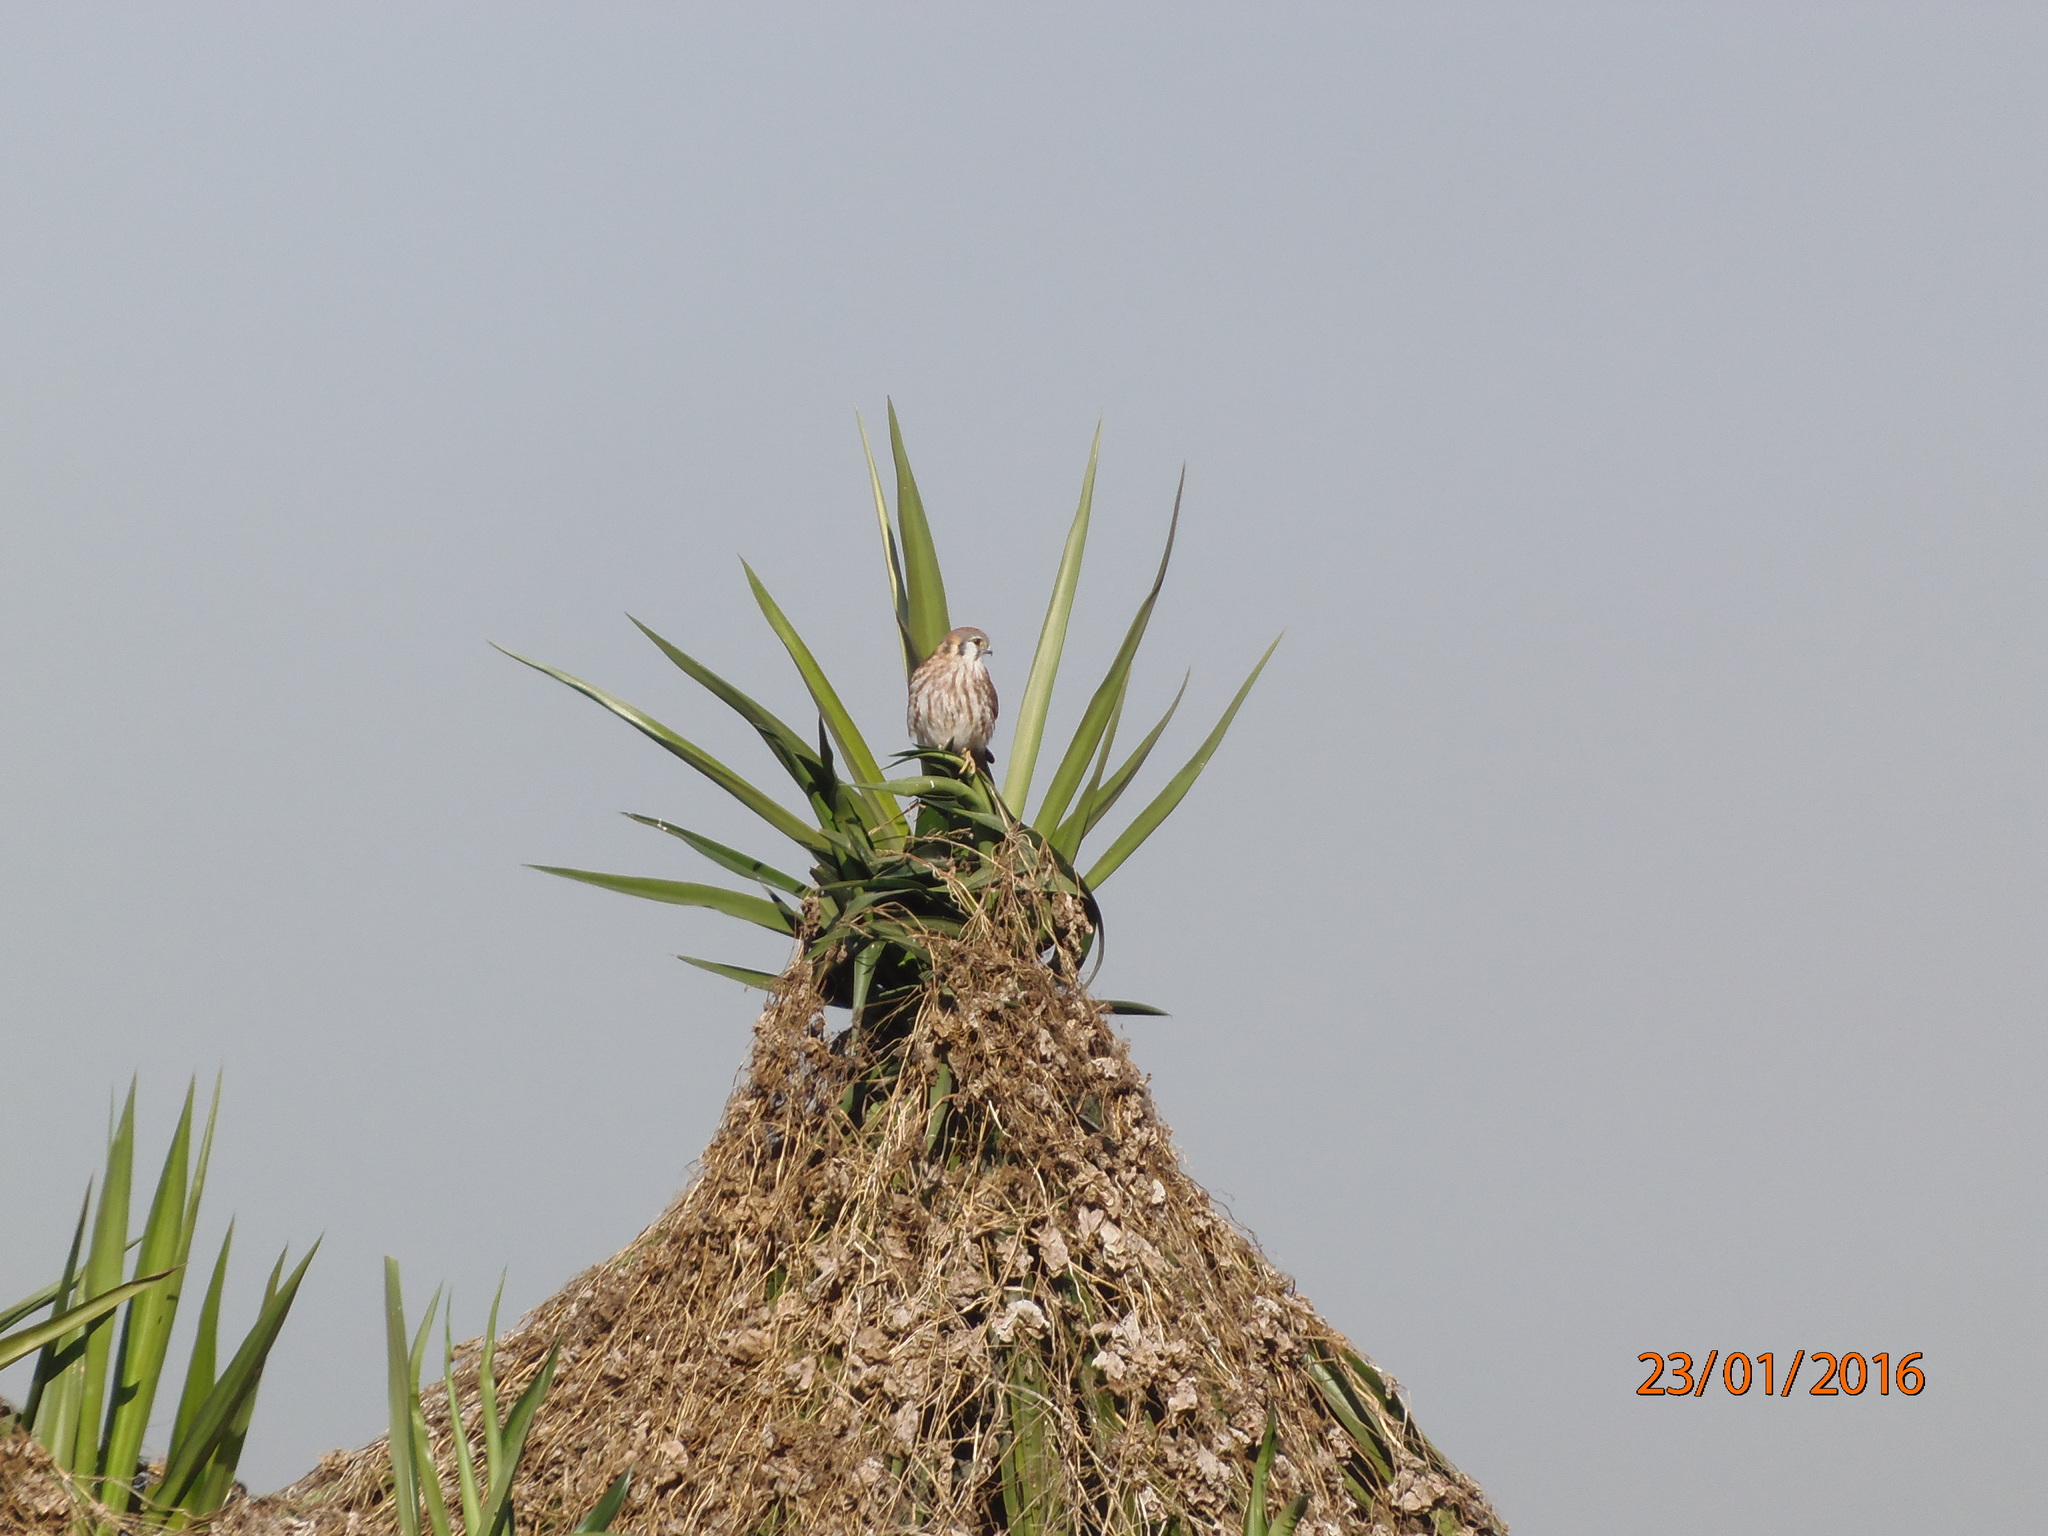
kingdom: Animalia
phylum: Chordata
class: Aves
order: Falconiformes
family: Falconidae
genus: Falco
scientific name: Falco sparverius
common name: American kestrel
